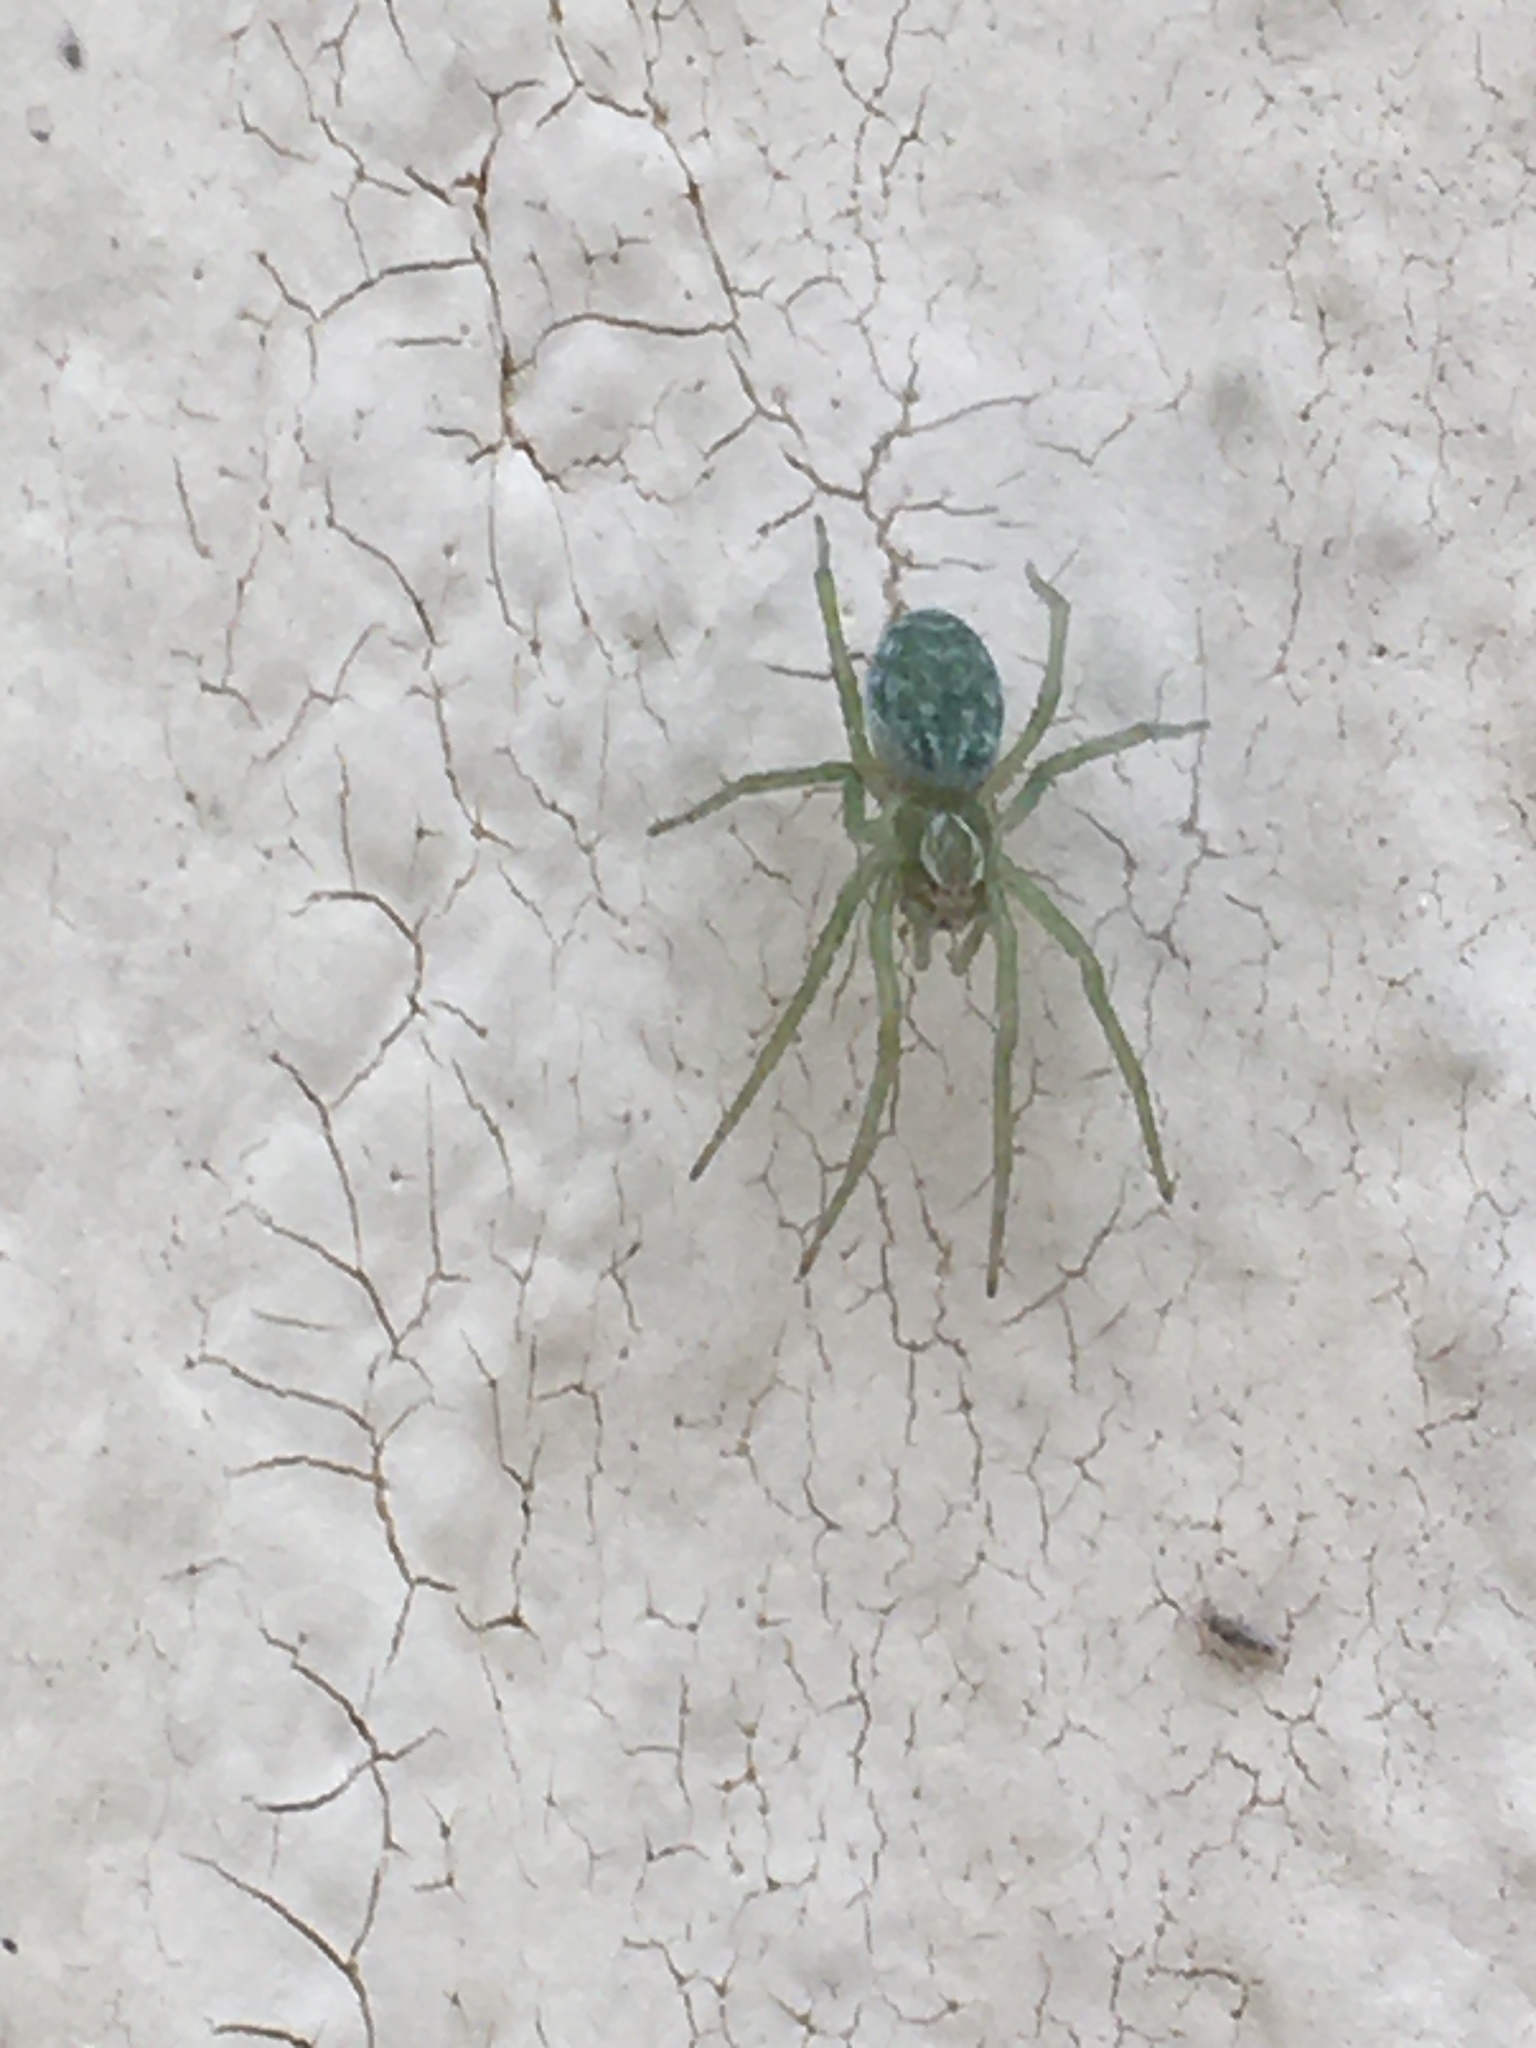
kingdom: Animalia
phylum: Arthropoda
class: Arachnida
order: Araneae
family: Dictynidae
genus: Nigma
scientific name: Nigma walckenaeri
